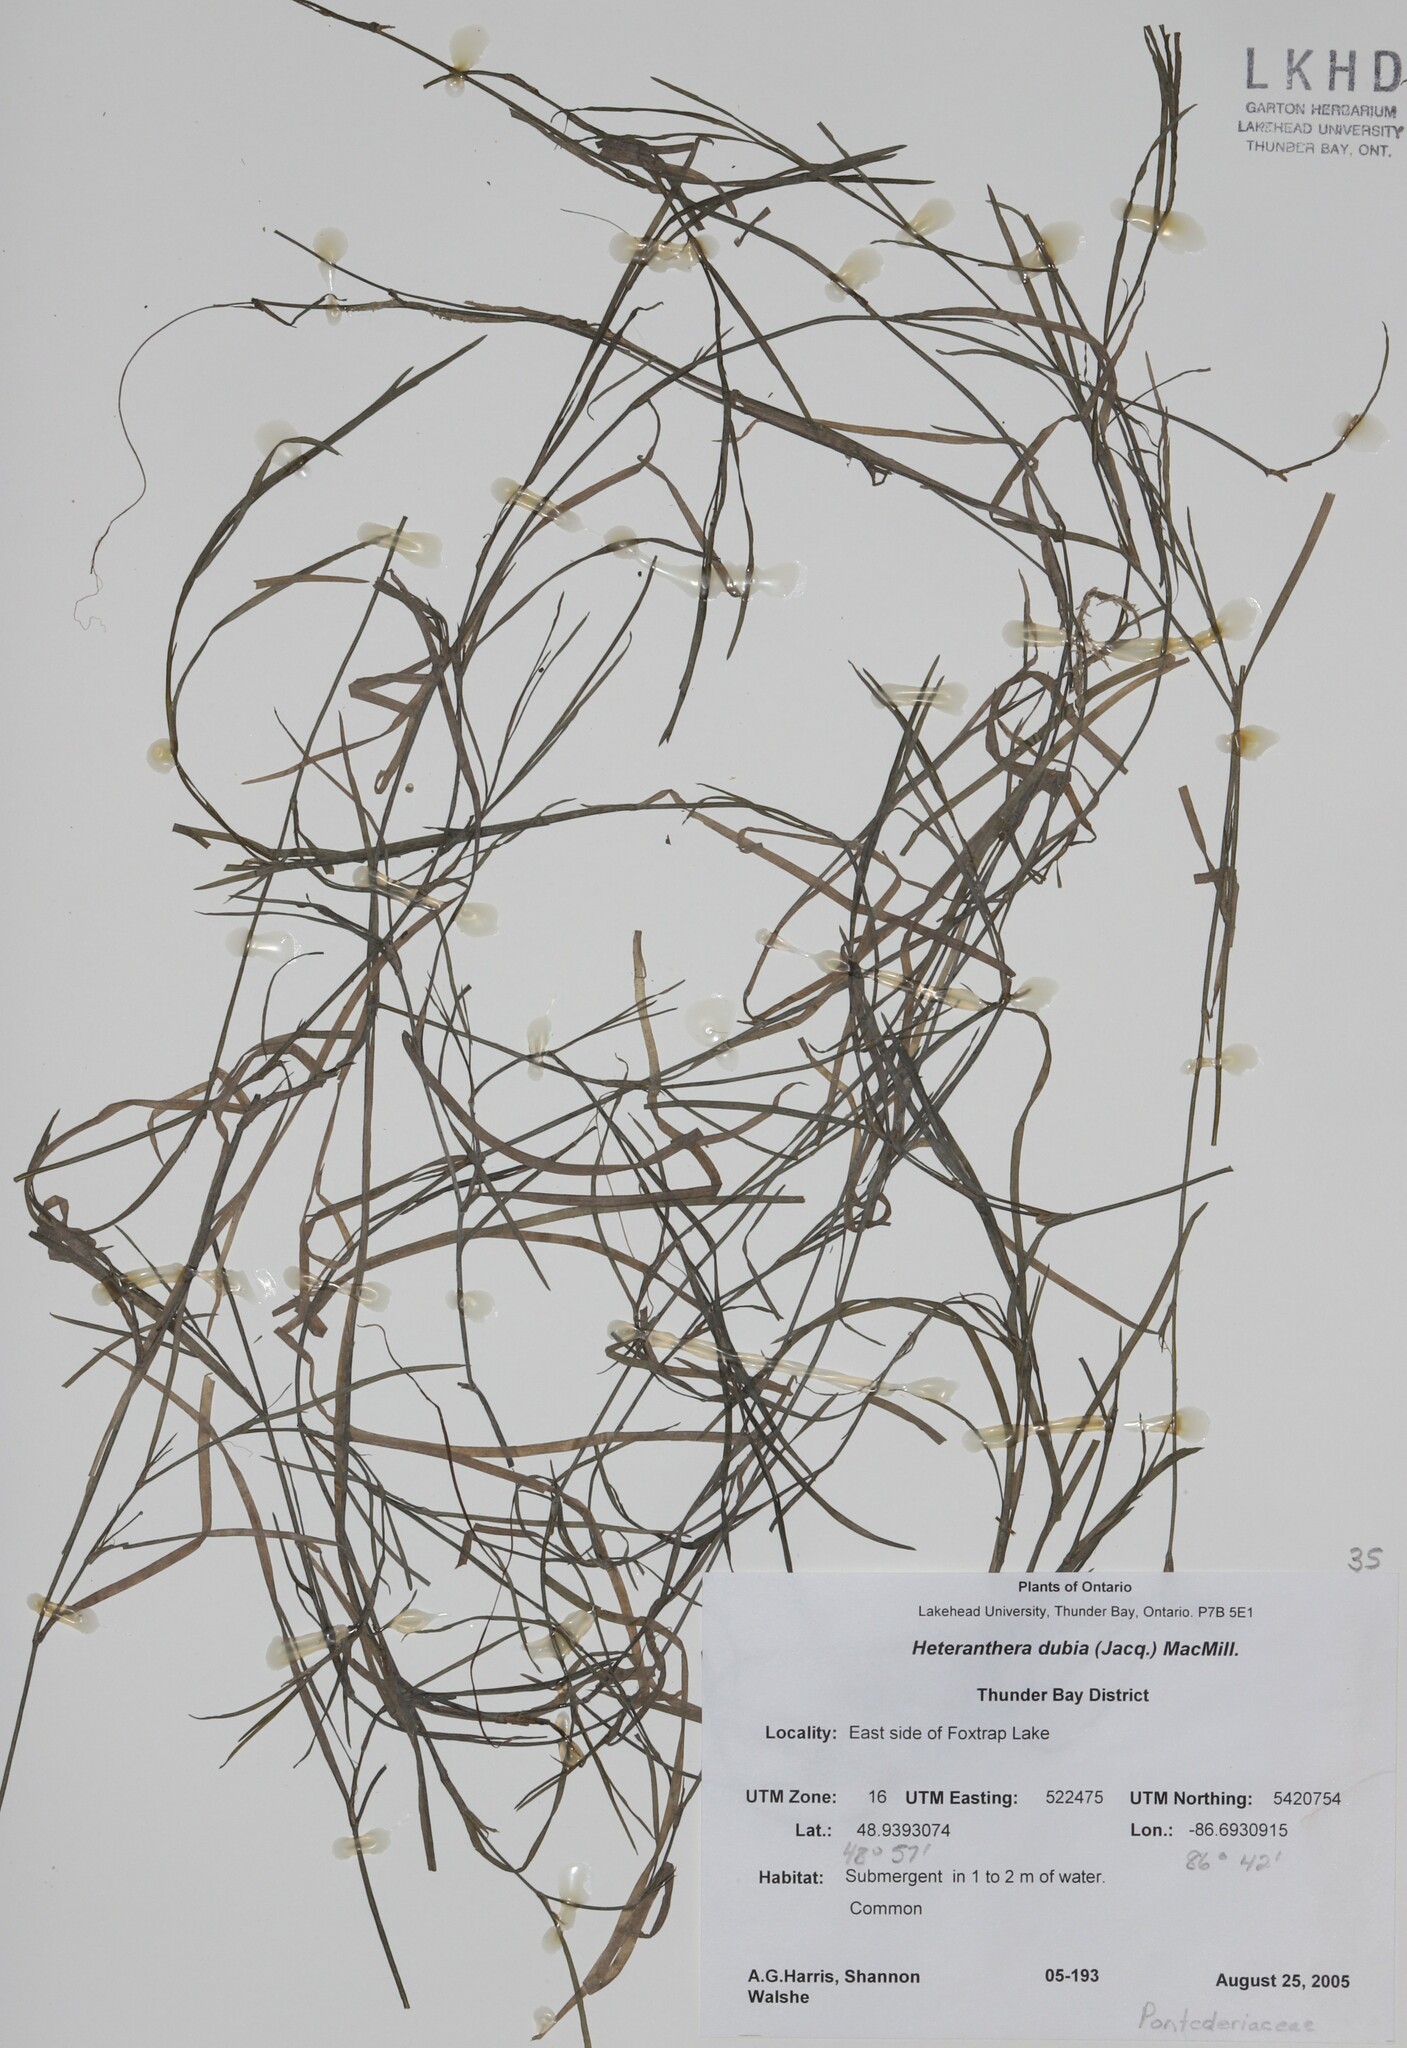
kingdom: Plantae
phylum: Tracheophyta
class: Liliopsida
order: Commelinales
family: Pontederiaceae
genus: Heteranthera
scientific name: Heteranthera dubia
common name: Grass-leaved mud plantain
